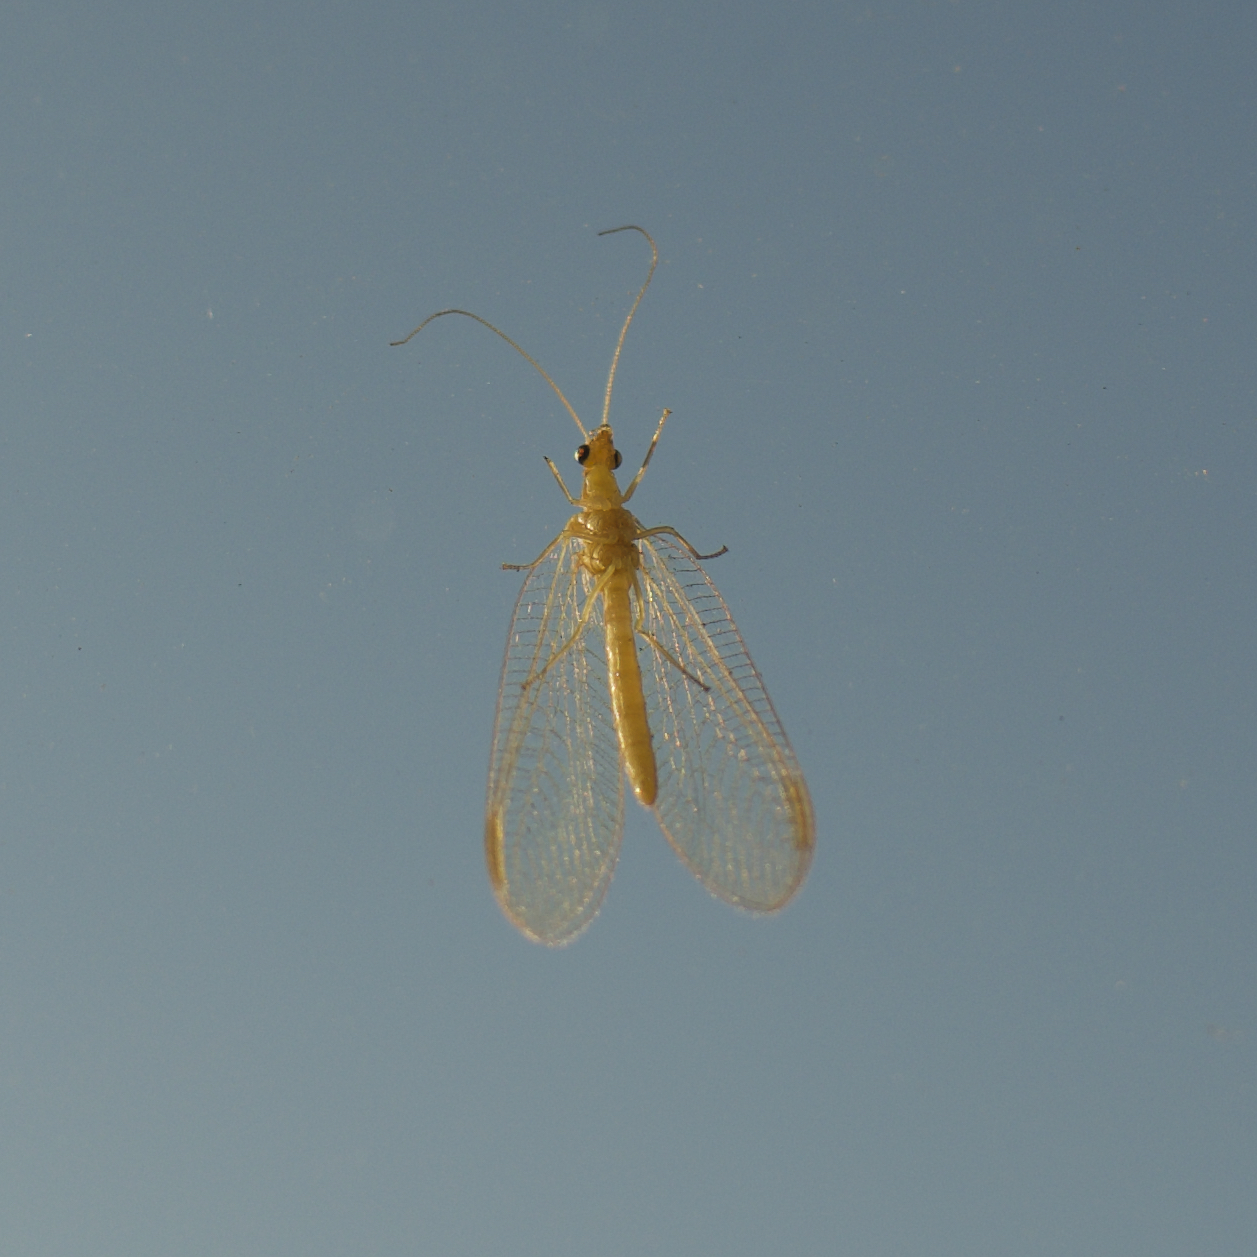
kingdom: Animalia
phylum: Arthropoda
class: Insecta
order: Neuroptera
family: Chrysopidae
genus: Chrysoperla
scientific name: Chrysoperla
